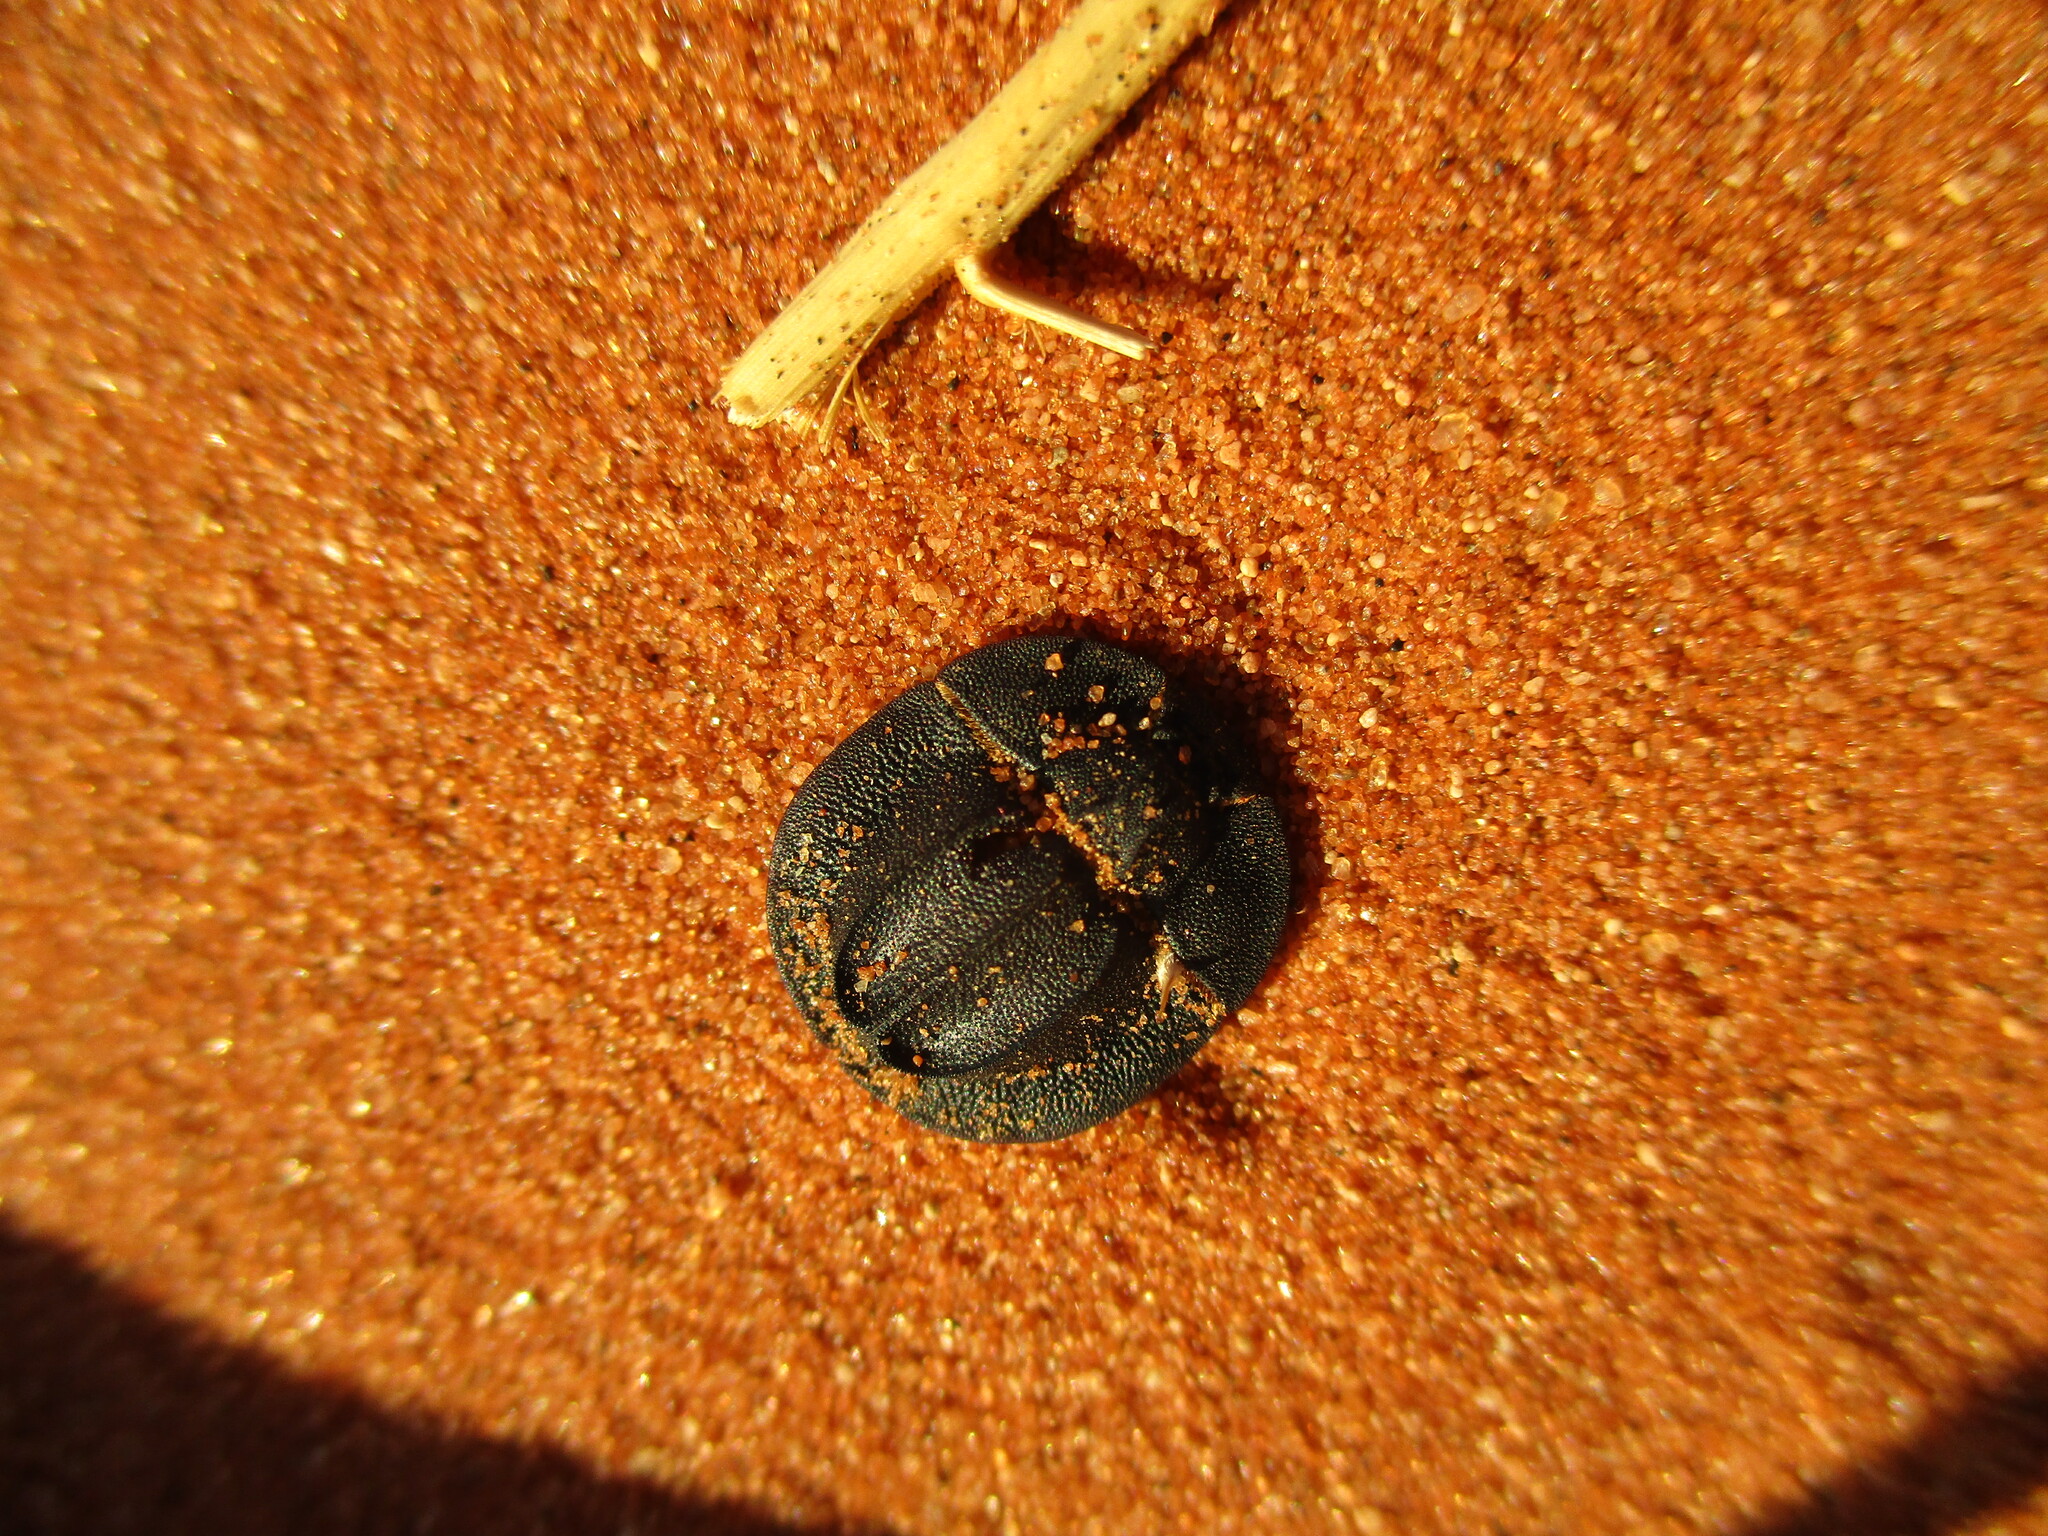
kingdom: Animalia
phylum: Arthropoda
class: Insecta
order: Coleoptera
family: Tenebrionidae
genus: Stips
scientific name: Stips
